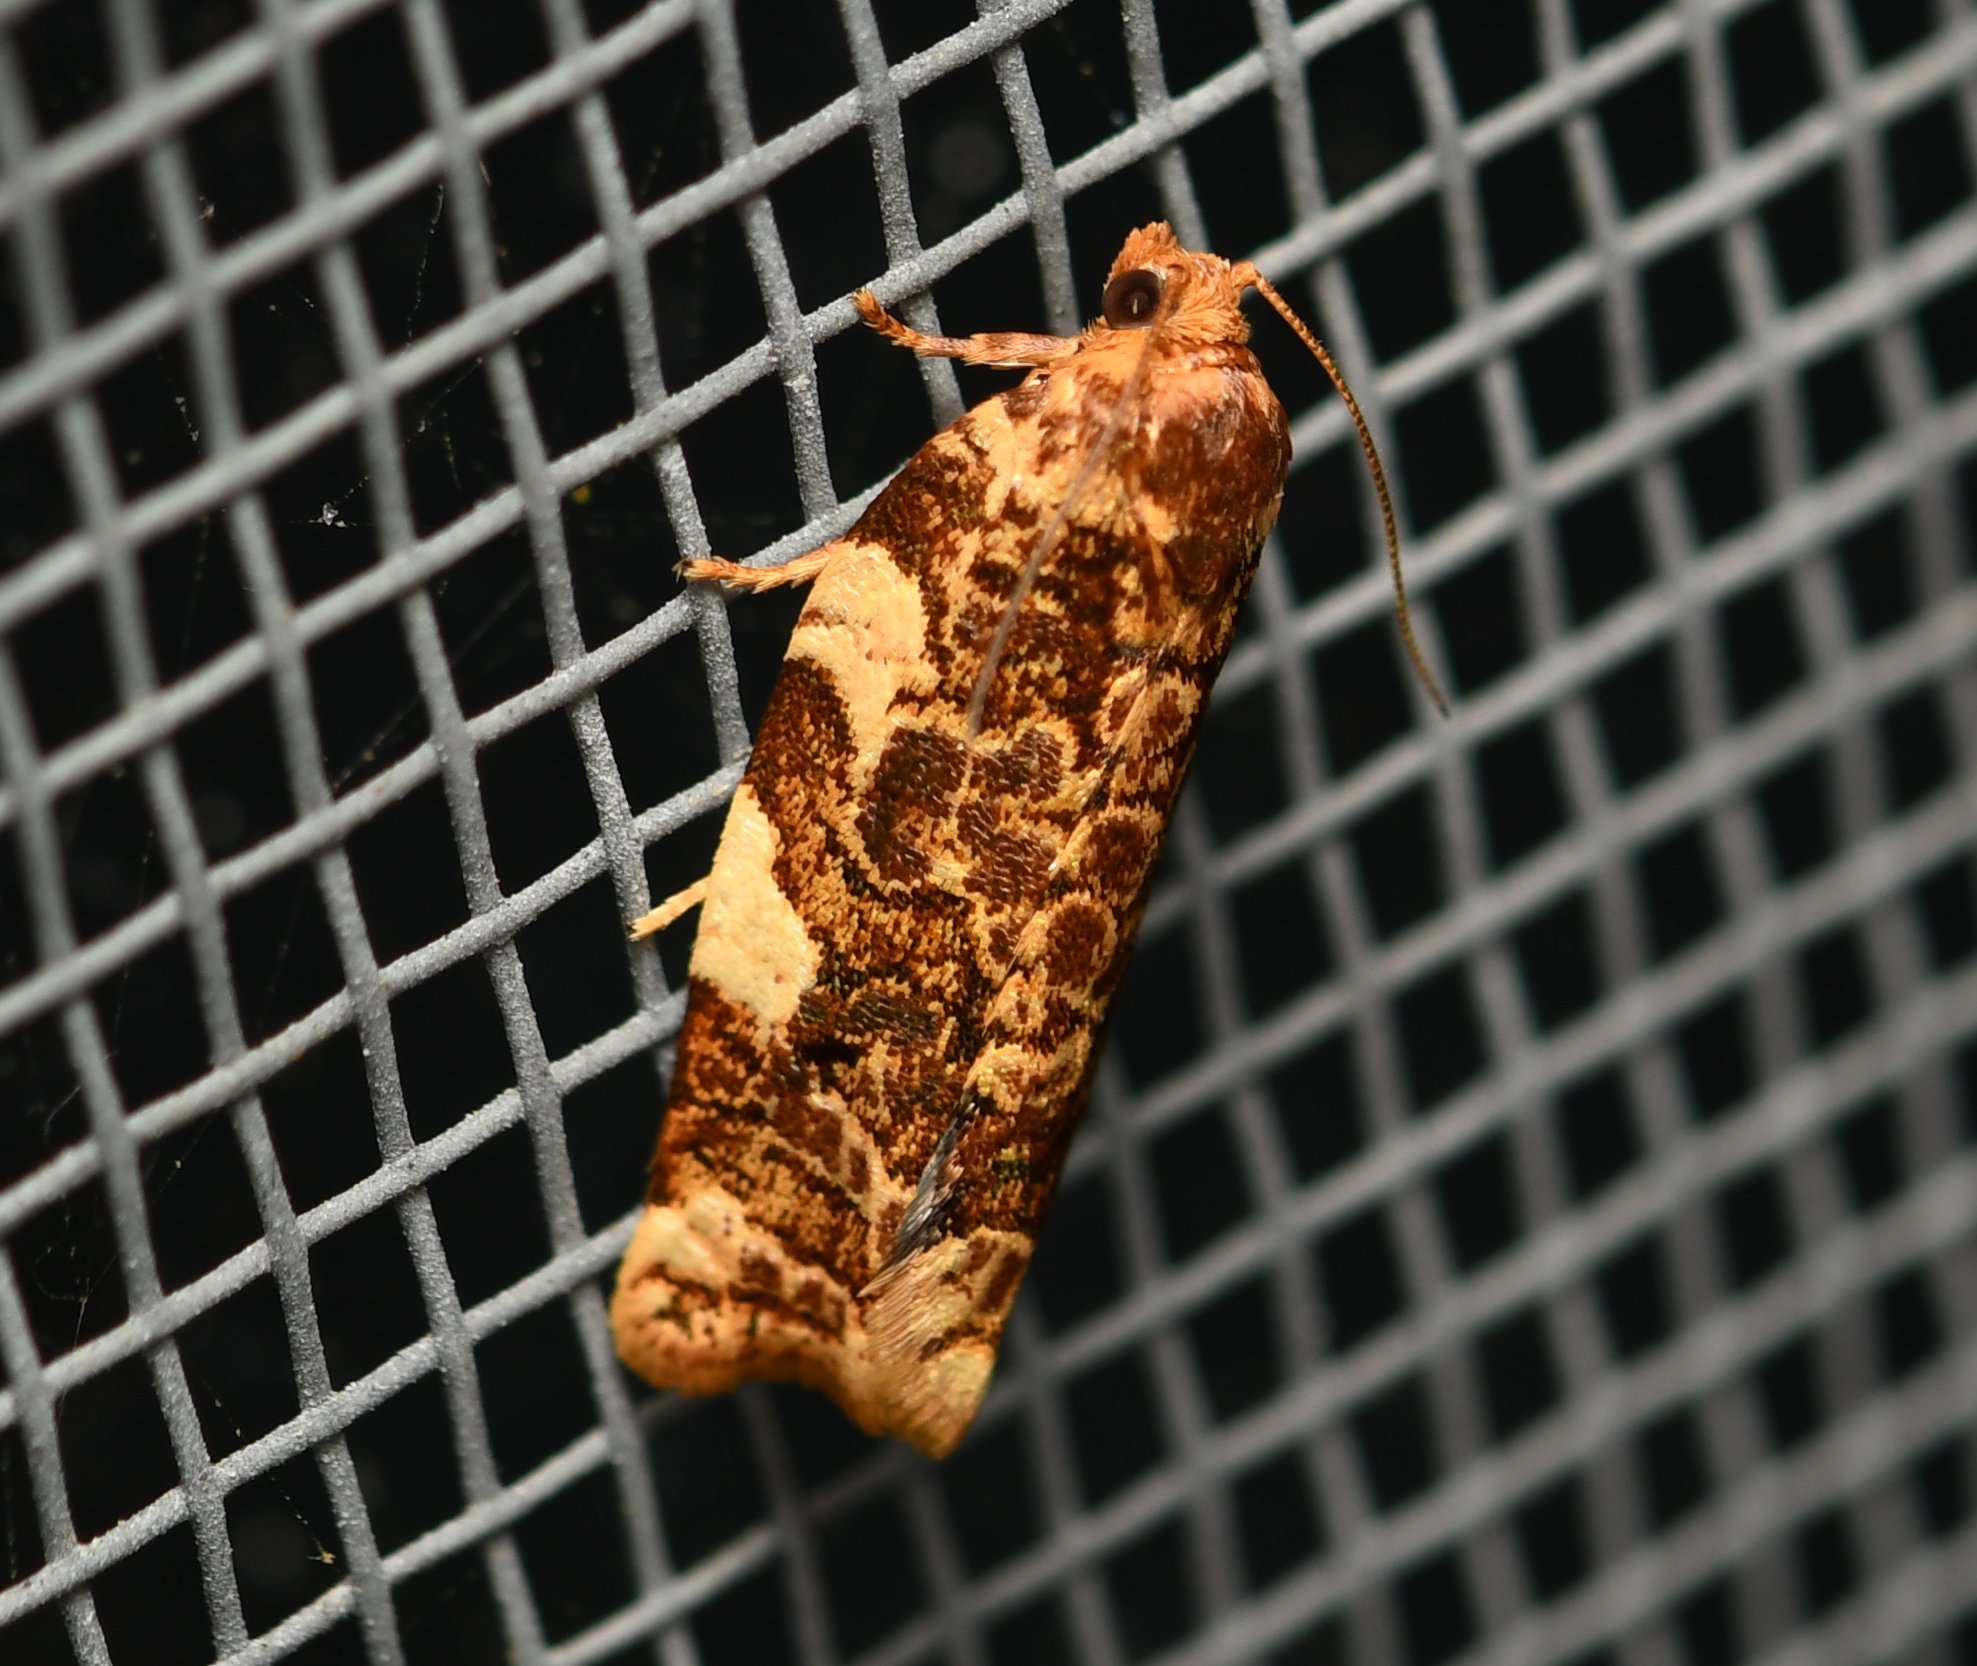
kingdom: Animalia
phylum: Arthropoda
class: Insecta
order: Lepidoptera
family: Tortricidae
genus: Archips
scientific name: Archips argyrospila
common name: Fruit-tree leafroller moth
